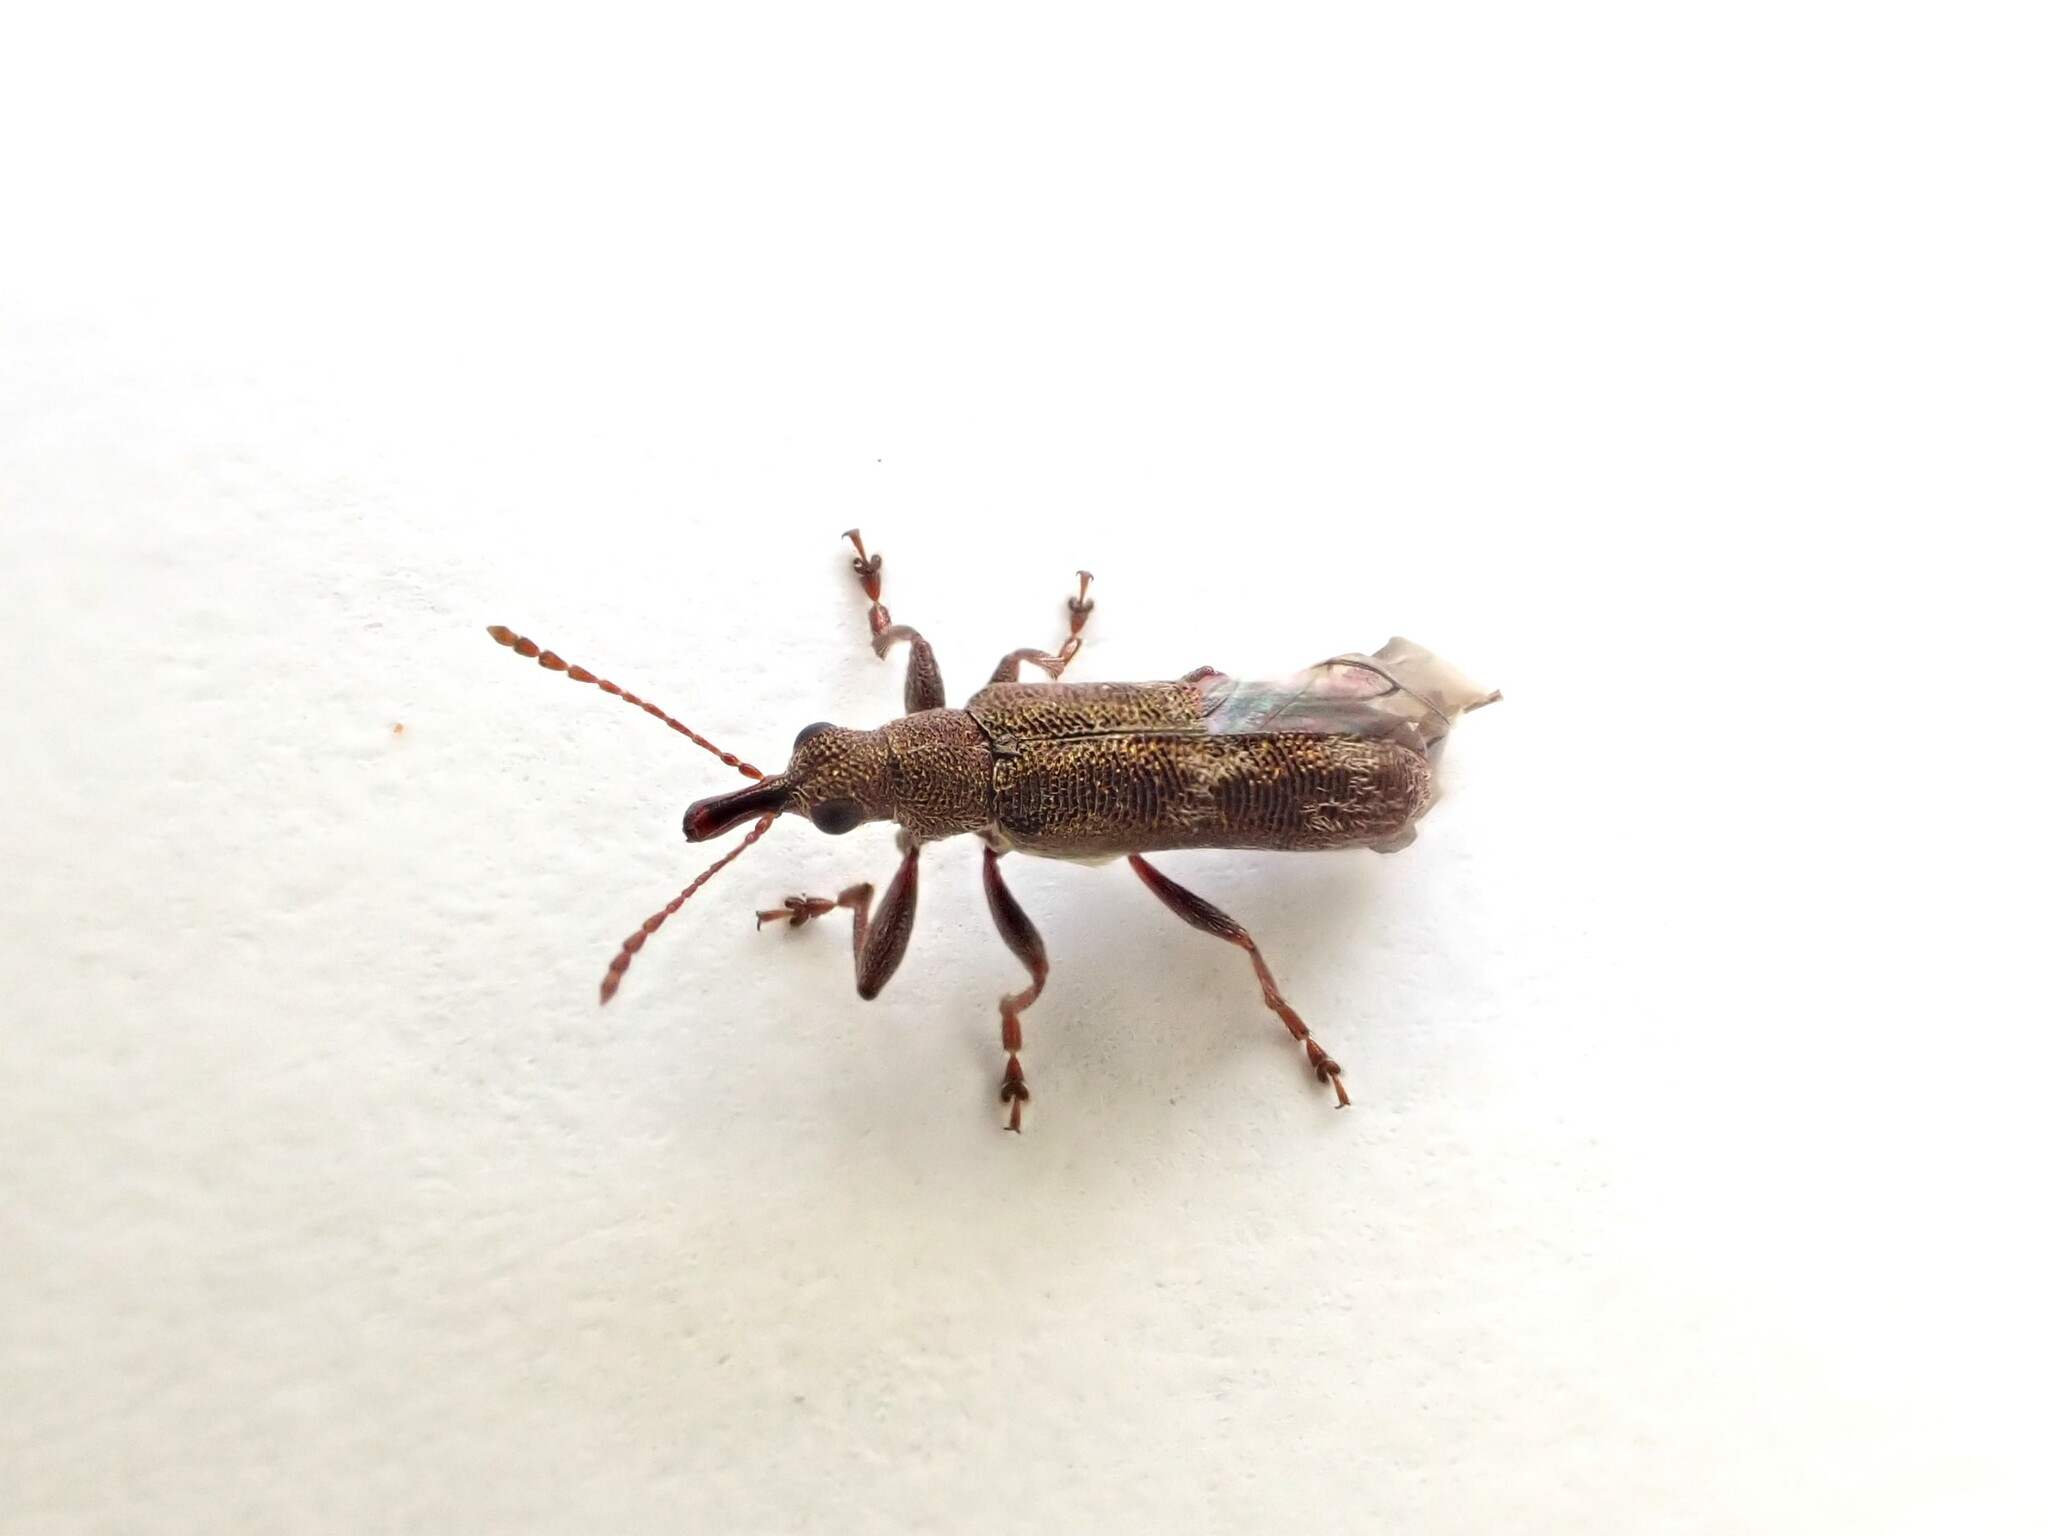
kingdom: Animalia
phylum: Arthropoda
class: Insecta
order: Coleoptera
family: Belidae
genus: Rhicnobelus
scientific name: Rhicnobelus
